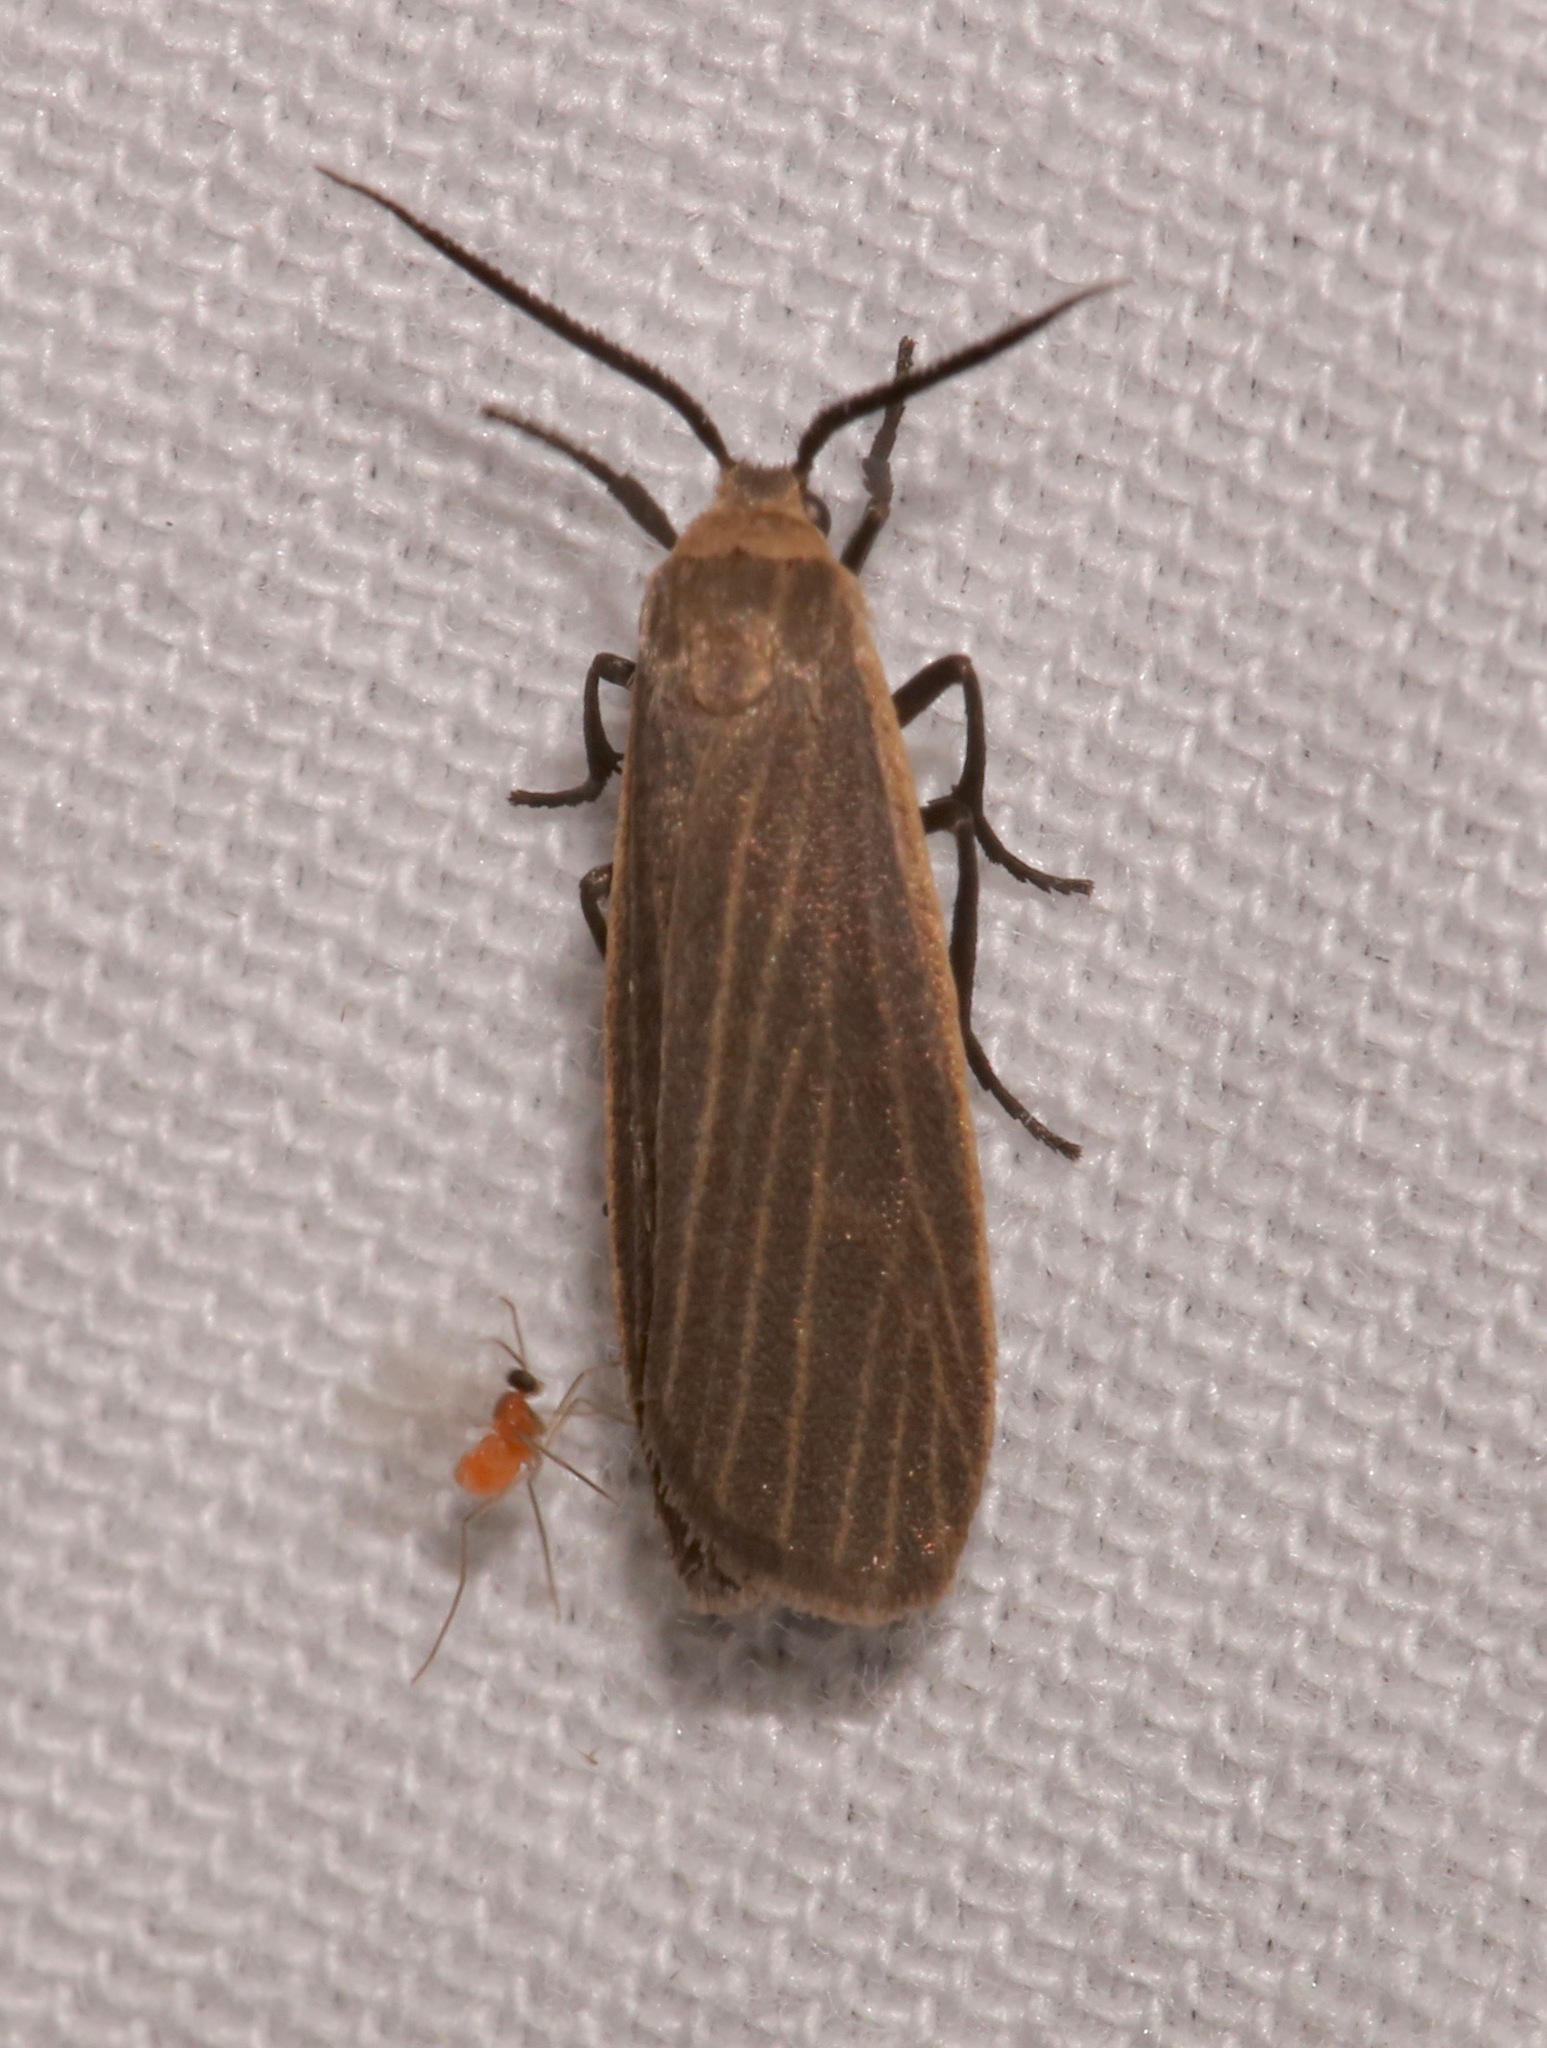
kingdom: Animalia
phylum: Arthropoda
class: Insecta
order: Lepidoptera
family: Erebidae
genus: Crambidia
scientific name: Crambidia lithosioides
